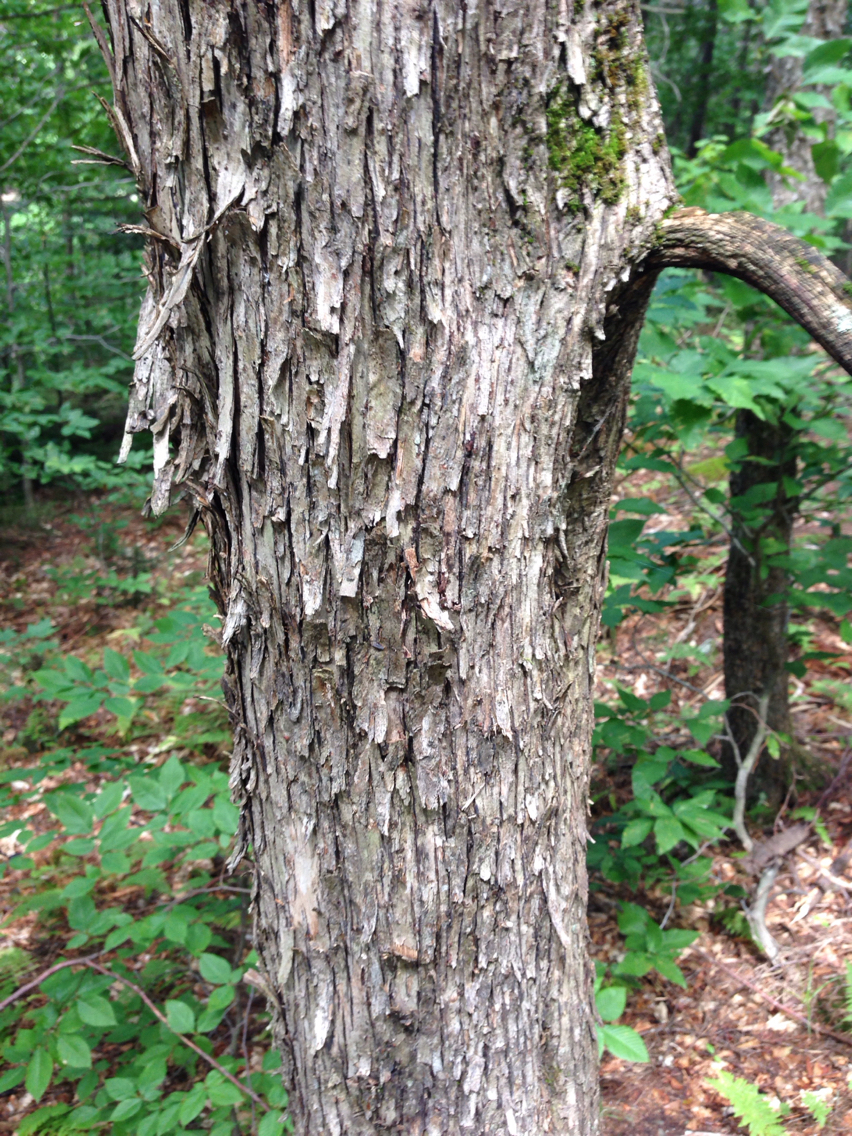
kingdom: Plantae
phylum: Tracheophyta
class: Magnoliopsida
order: Fagales
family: Betulaceae
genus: Ostrya
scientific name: Ostrya virginiana
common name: Ironwood
